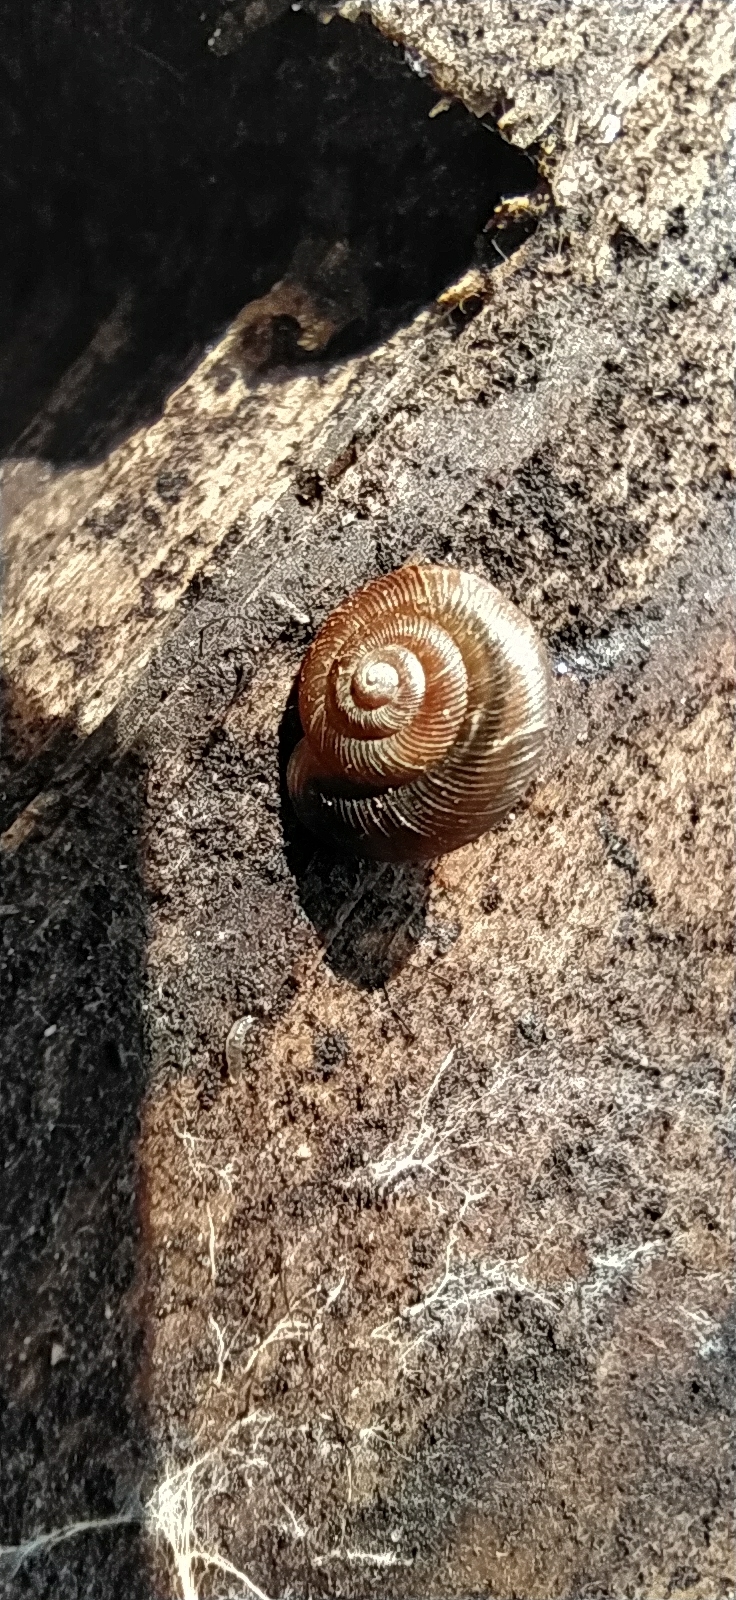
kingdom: Animalia
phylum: Mollusca
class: Gastropoda
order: Stylommatophora
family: Discidae
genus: Discus
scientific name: Discus ruderatus
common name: Brown disc snail
